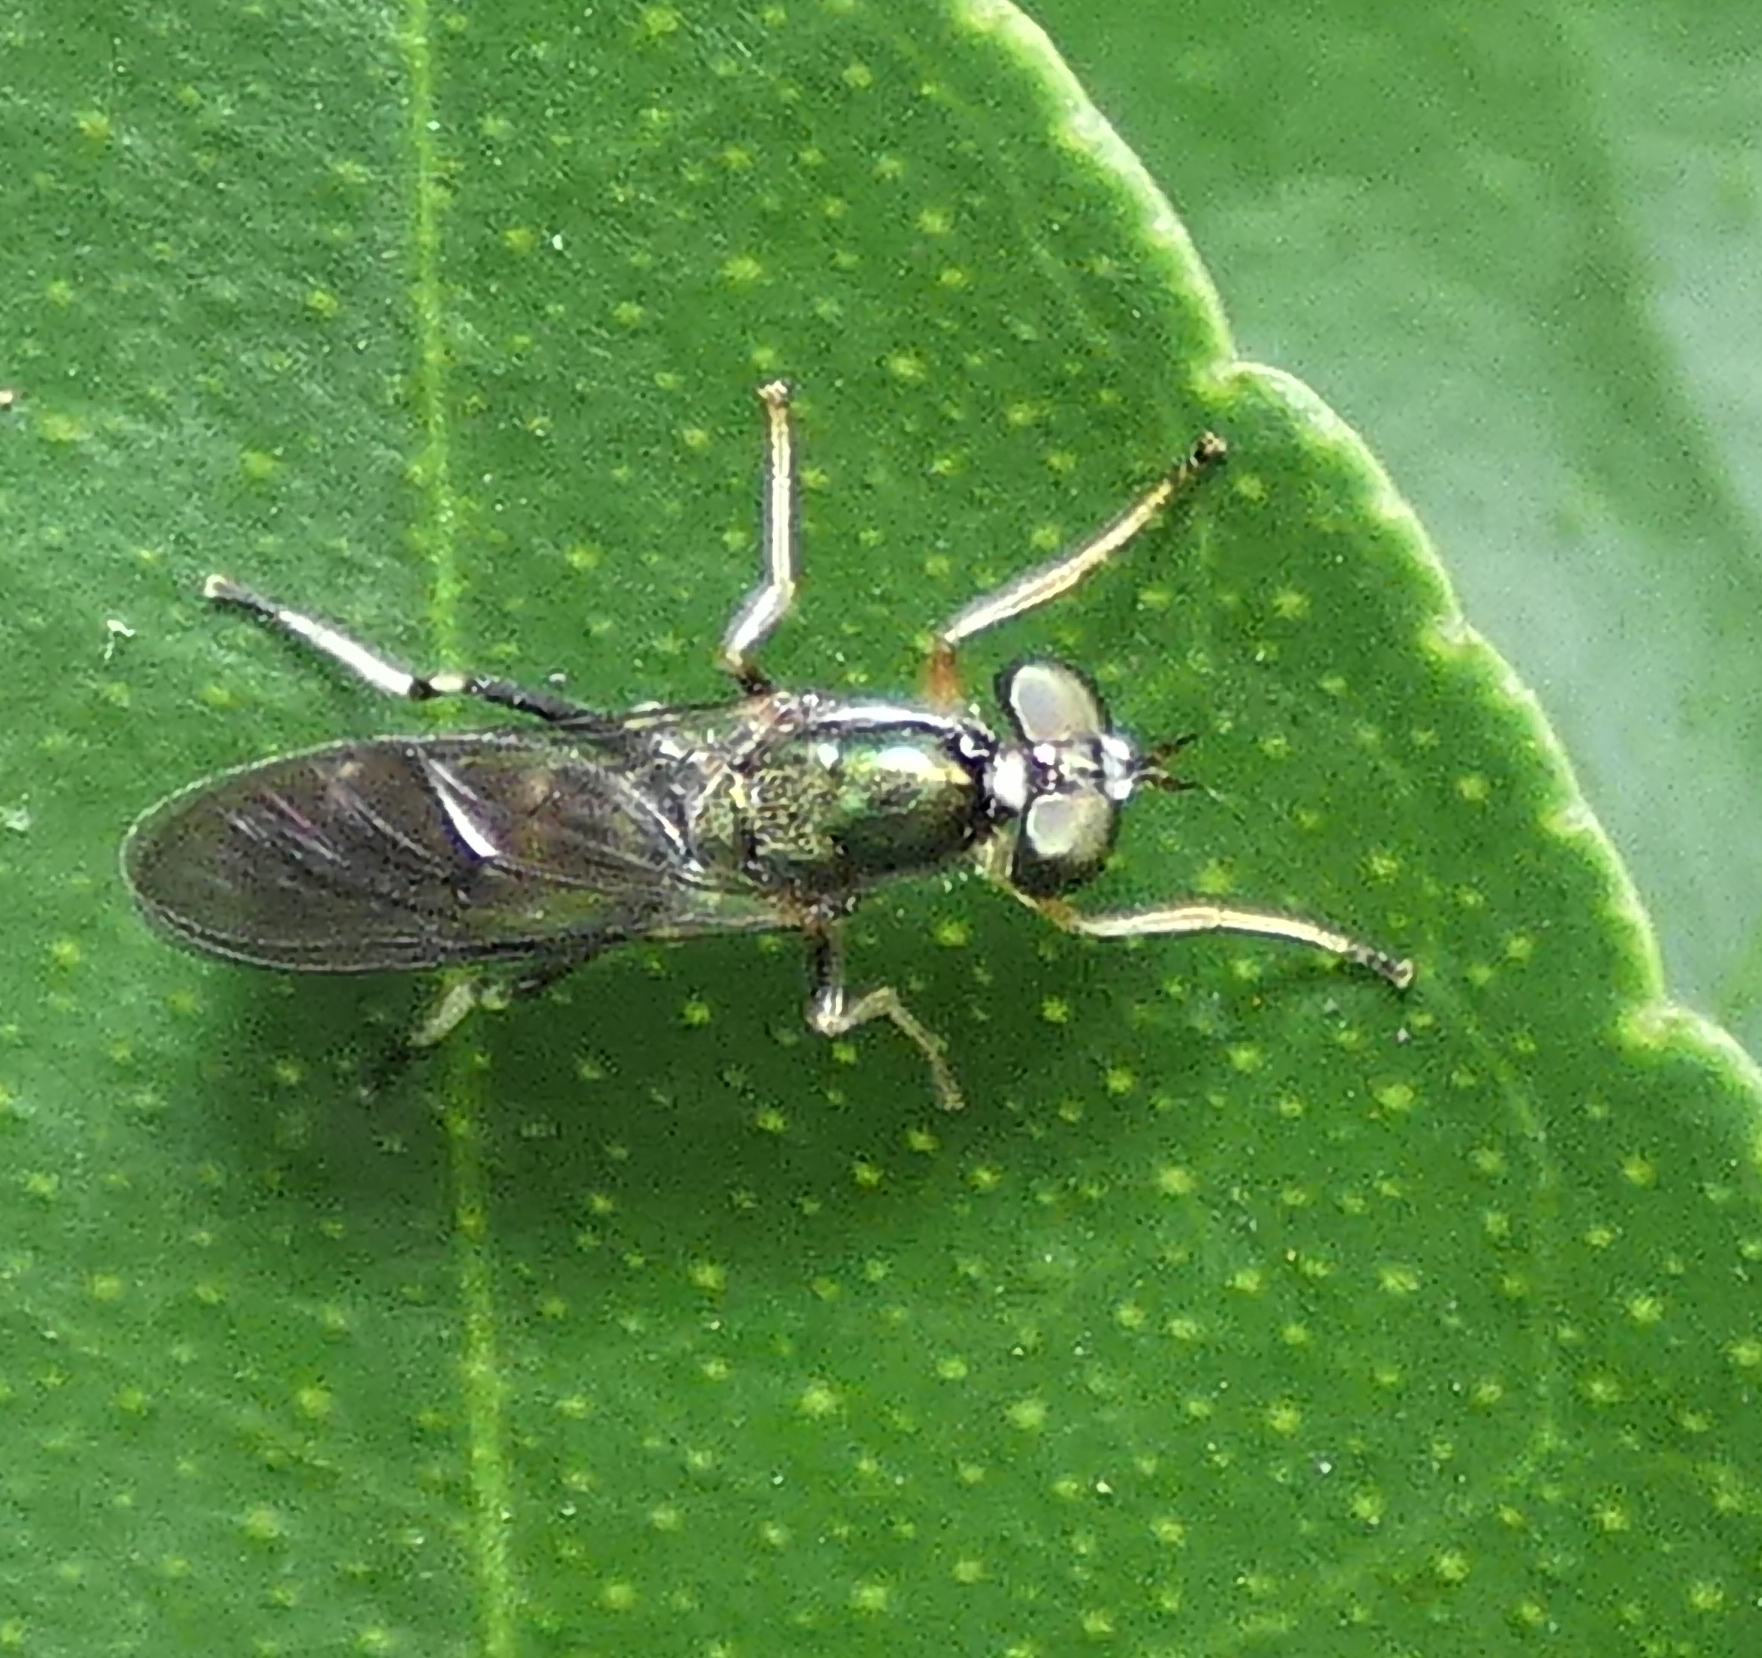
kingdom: Animalia
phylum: Arthropoda
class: Insecta
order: Diptera
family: Stratiomyidae
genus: Merosargus
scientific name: Merosargus gracilis
